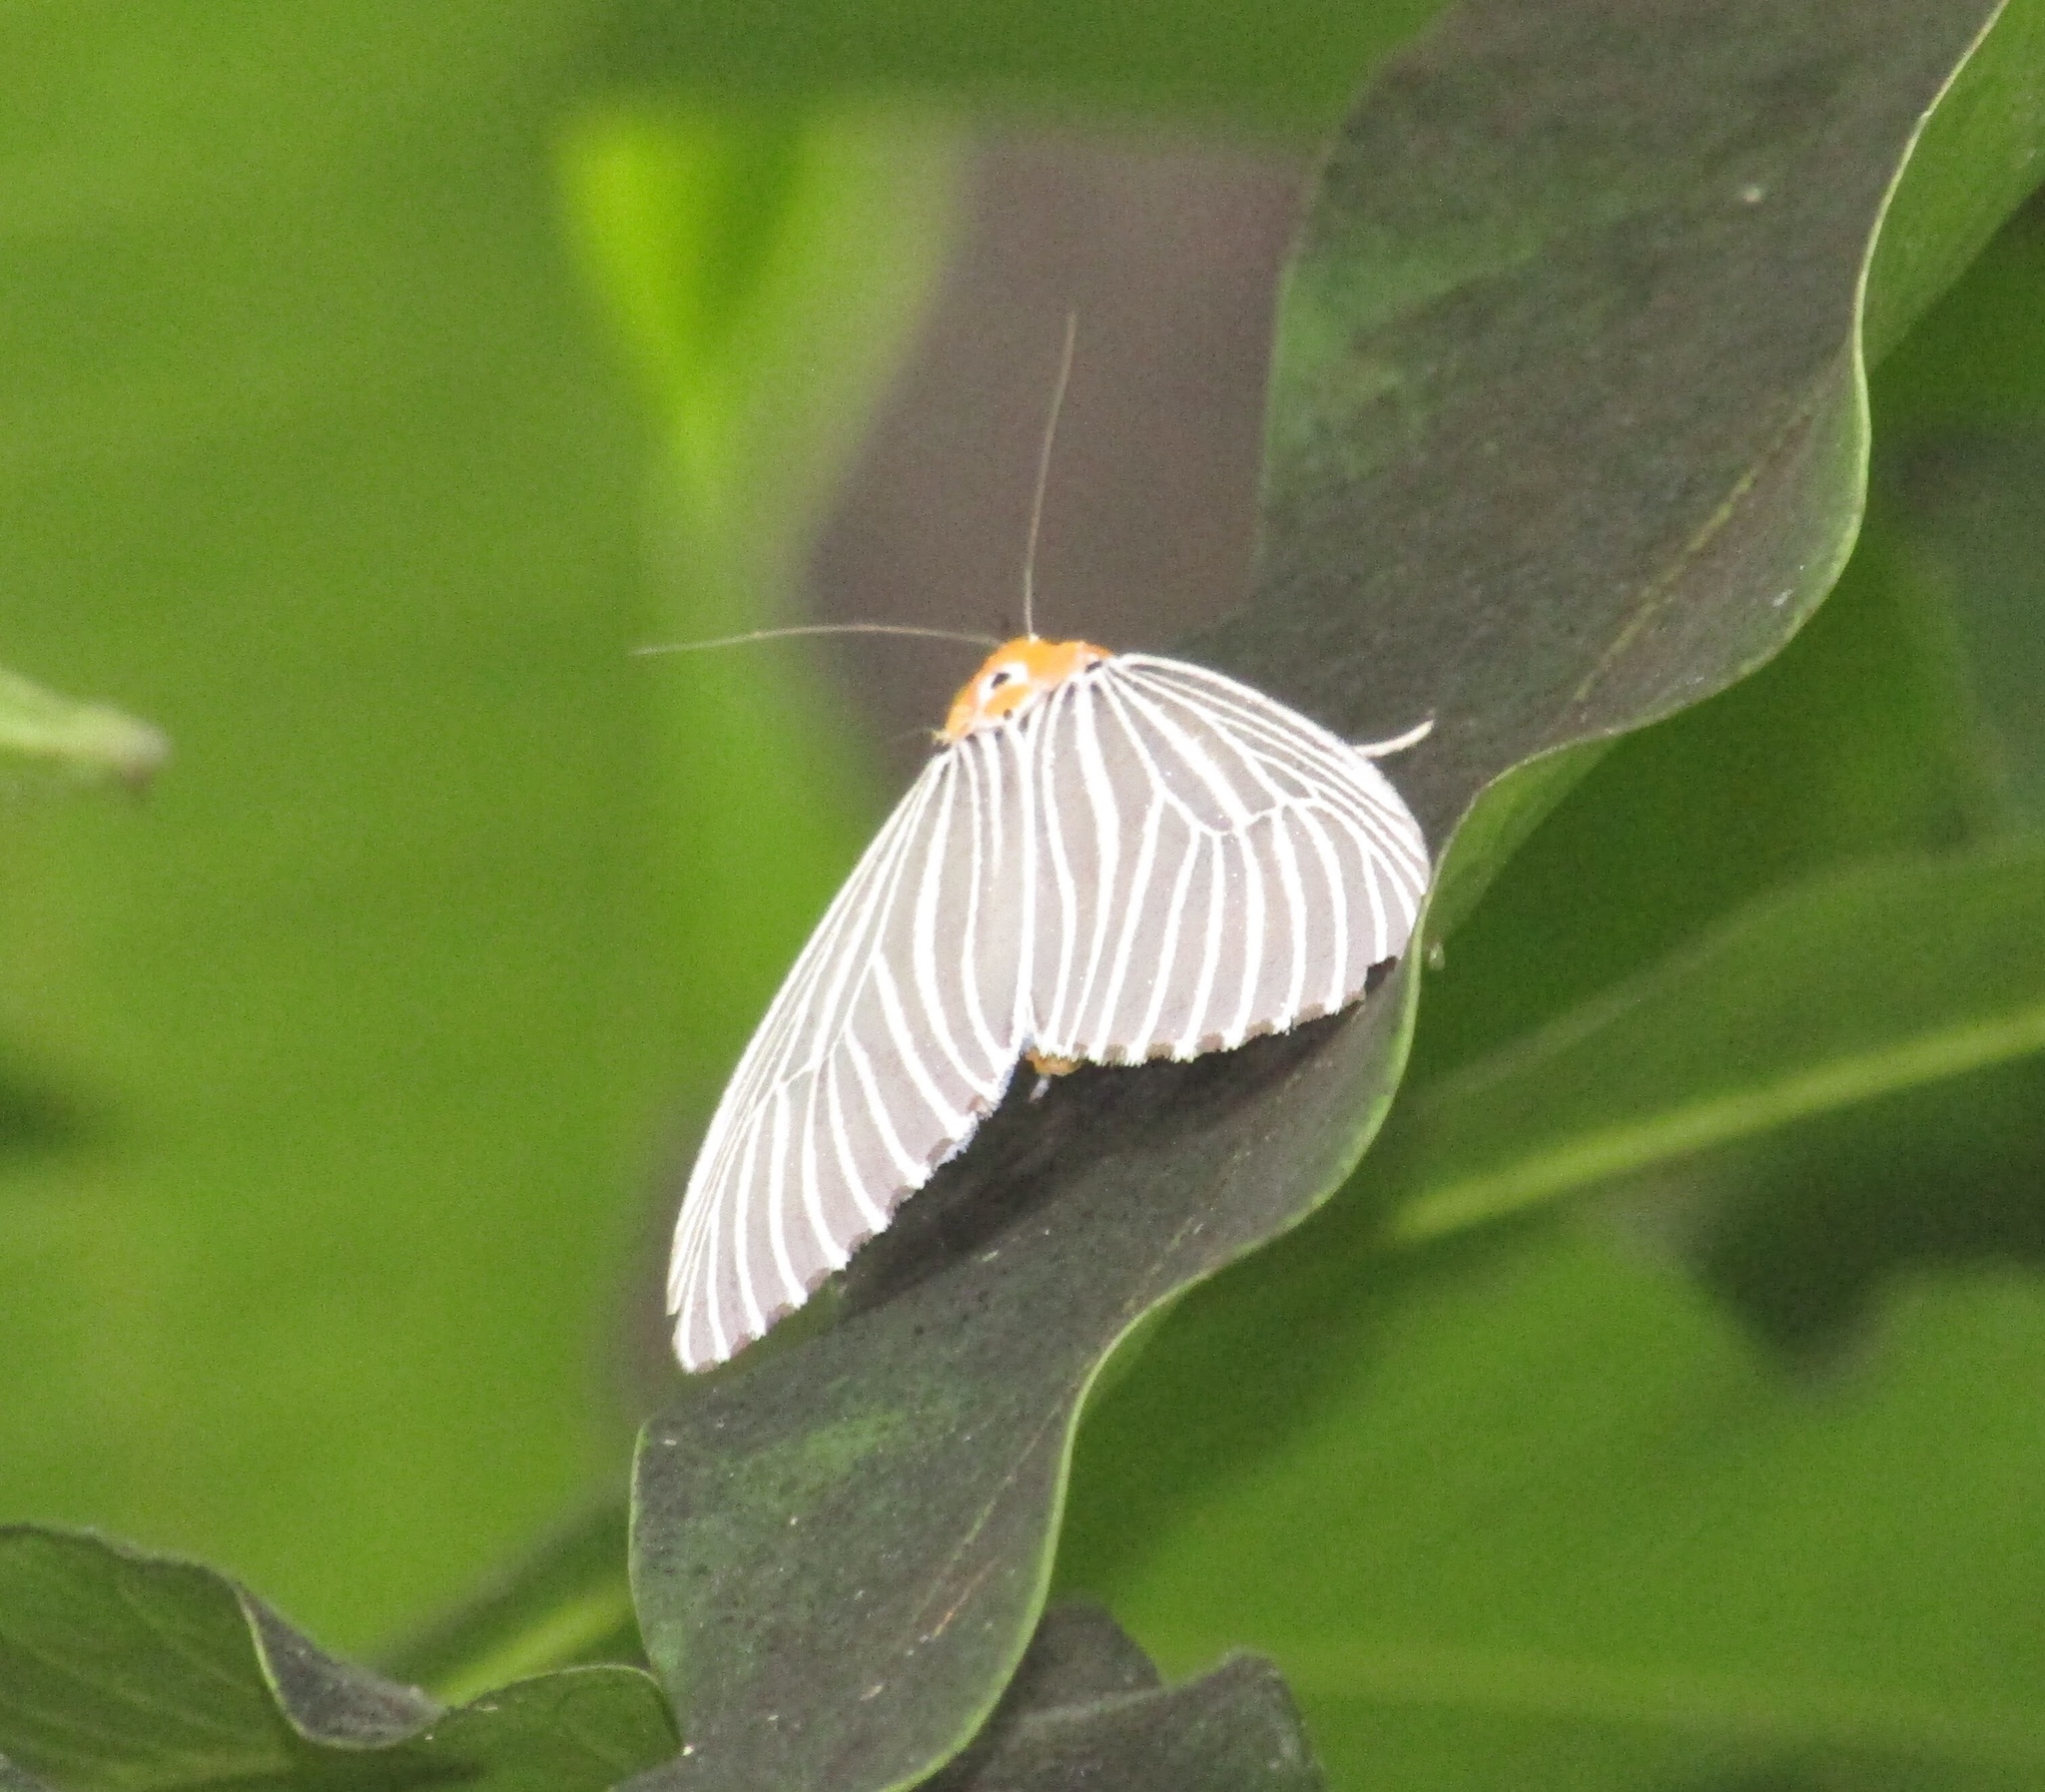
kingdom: Animalia
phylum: Arthropoda
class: Insecta
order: Lepidoptera
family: Erebidae
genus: Neochera
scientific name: Neochera dominia
